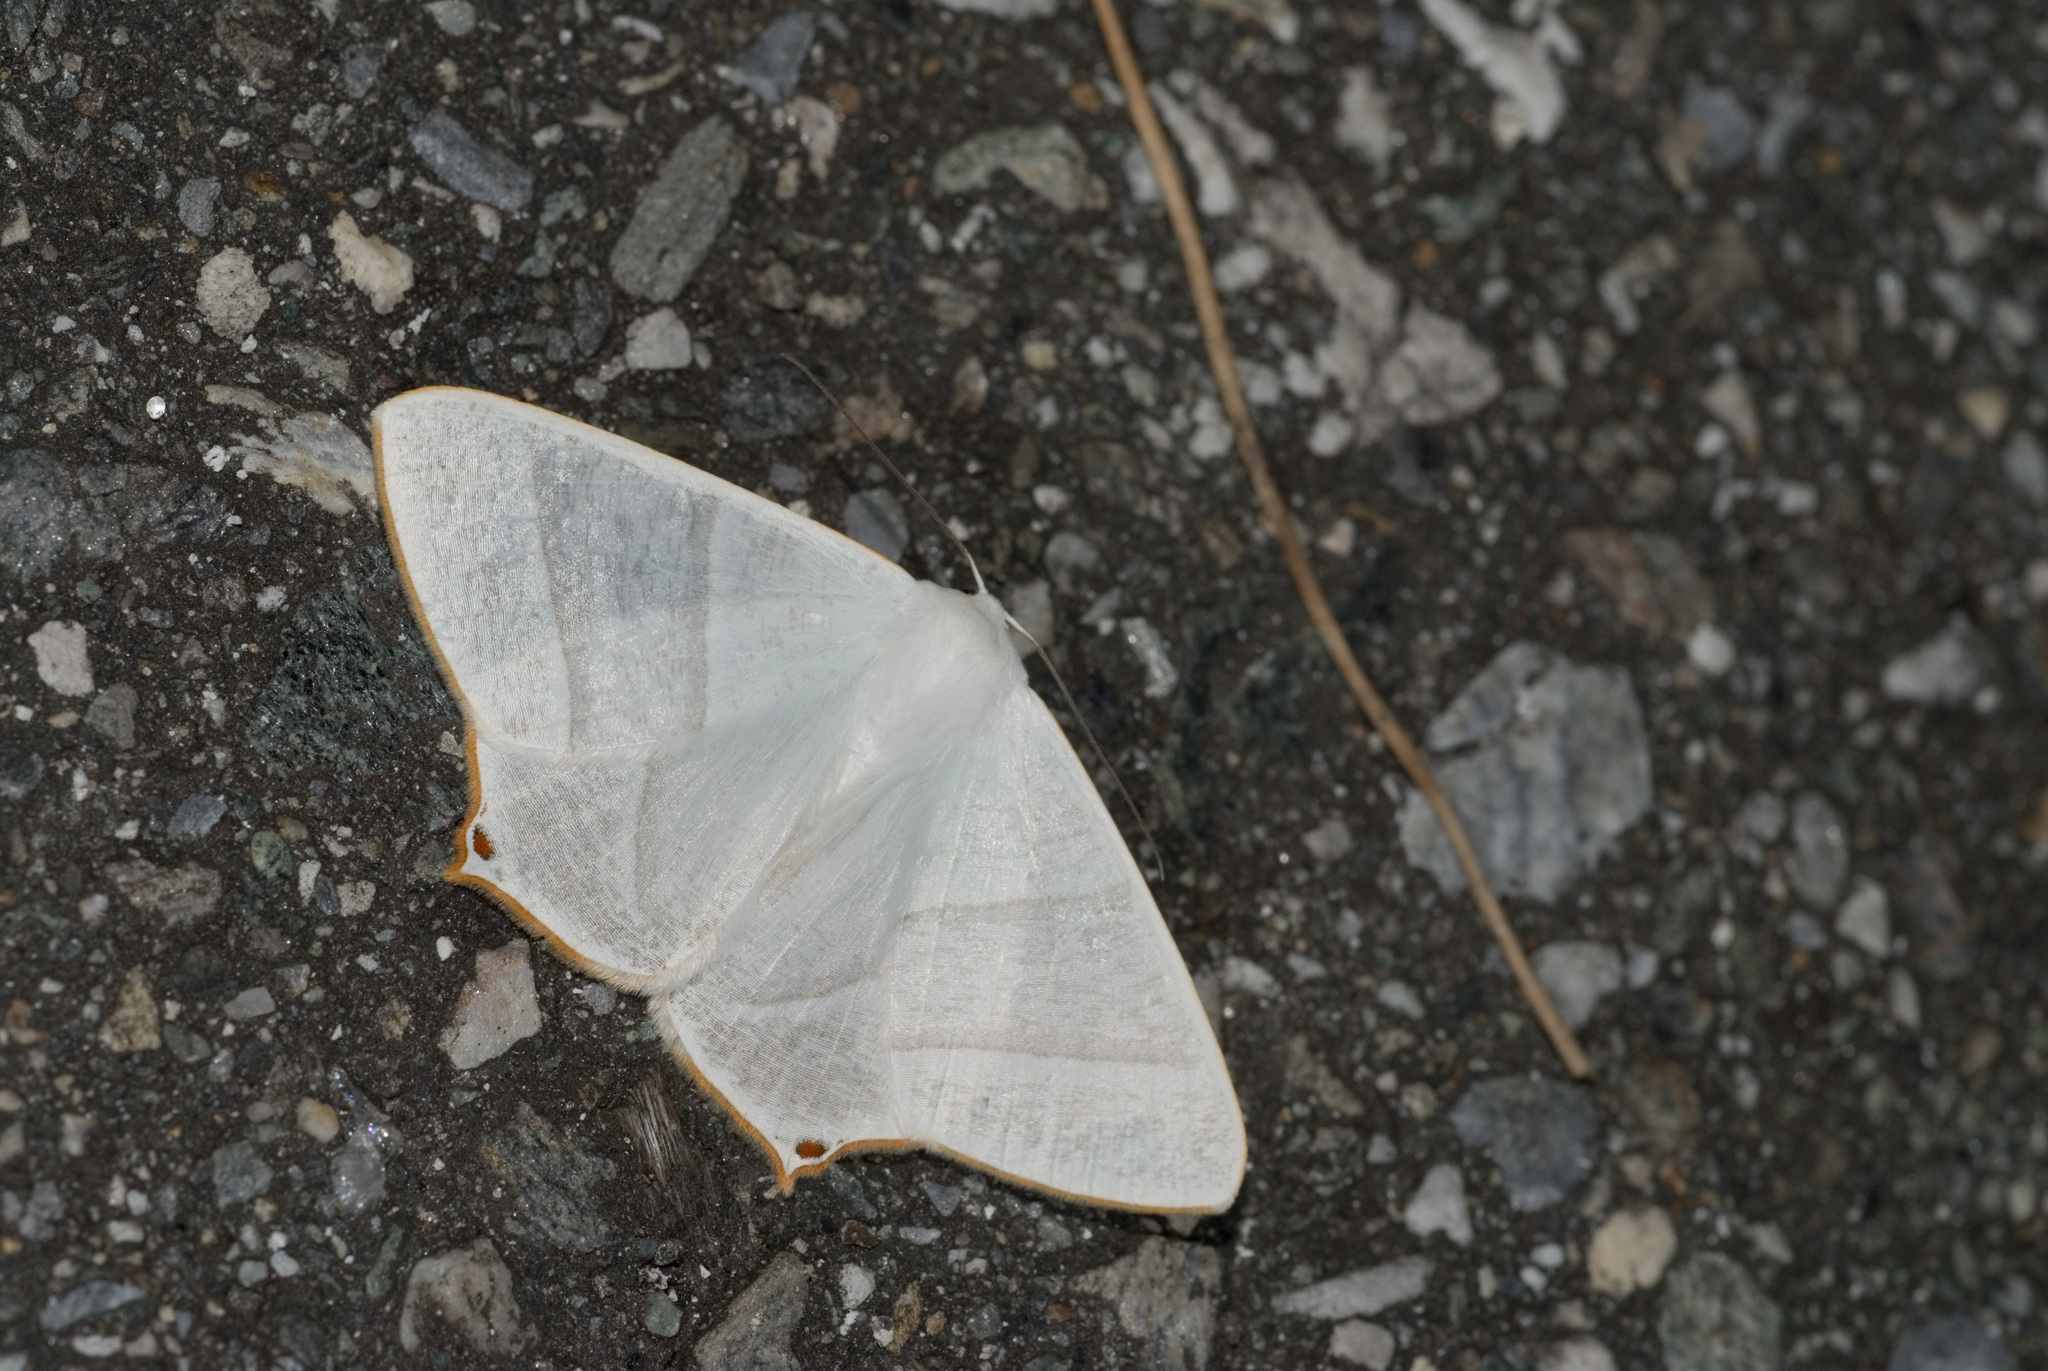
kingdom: Animalia
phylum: Arthropoda
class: Insecta
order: Lepidoptera
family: Geometridae
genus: Ourapteryx
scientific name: Ourapteryx caecata
